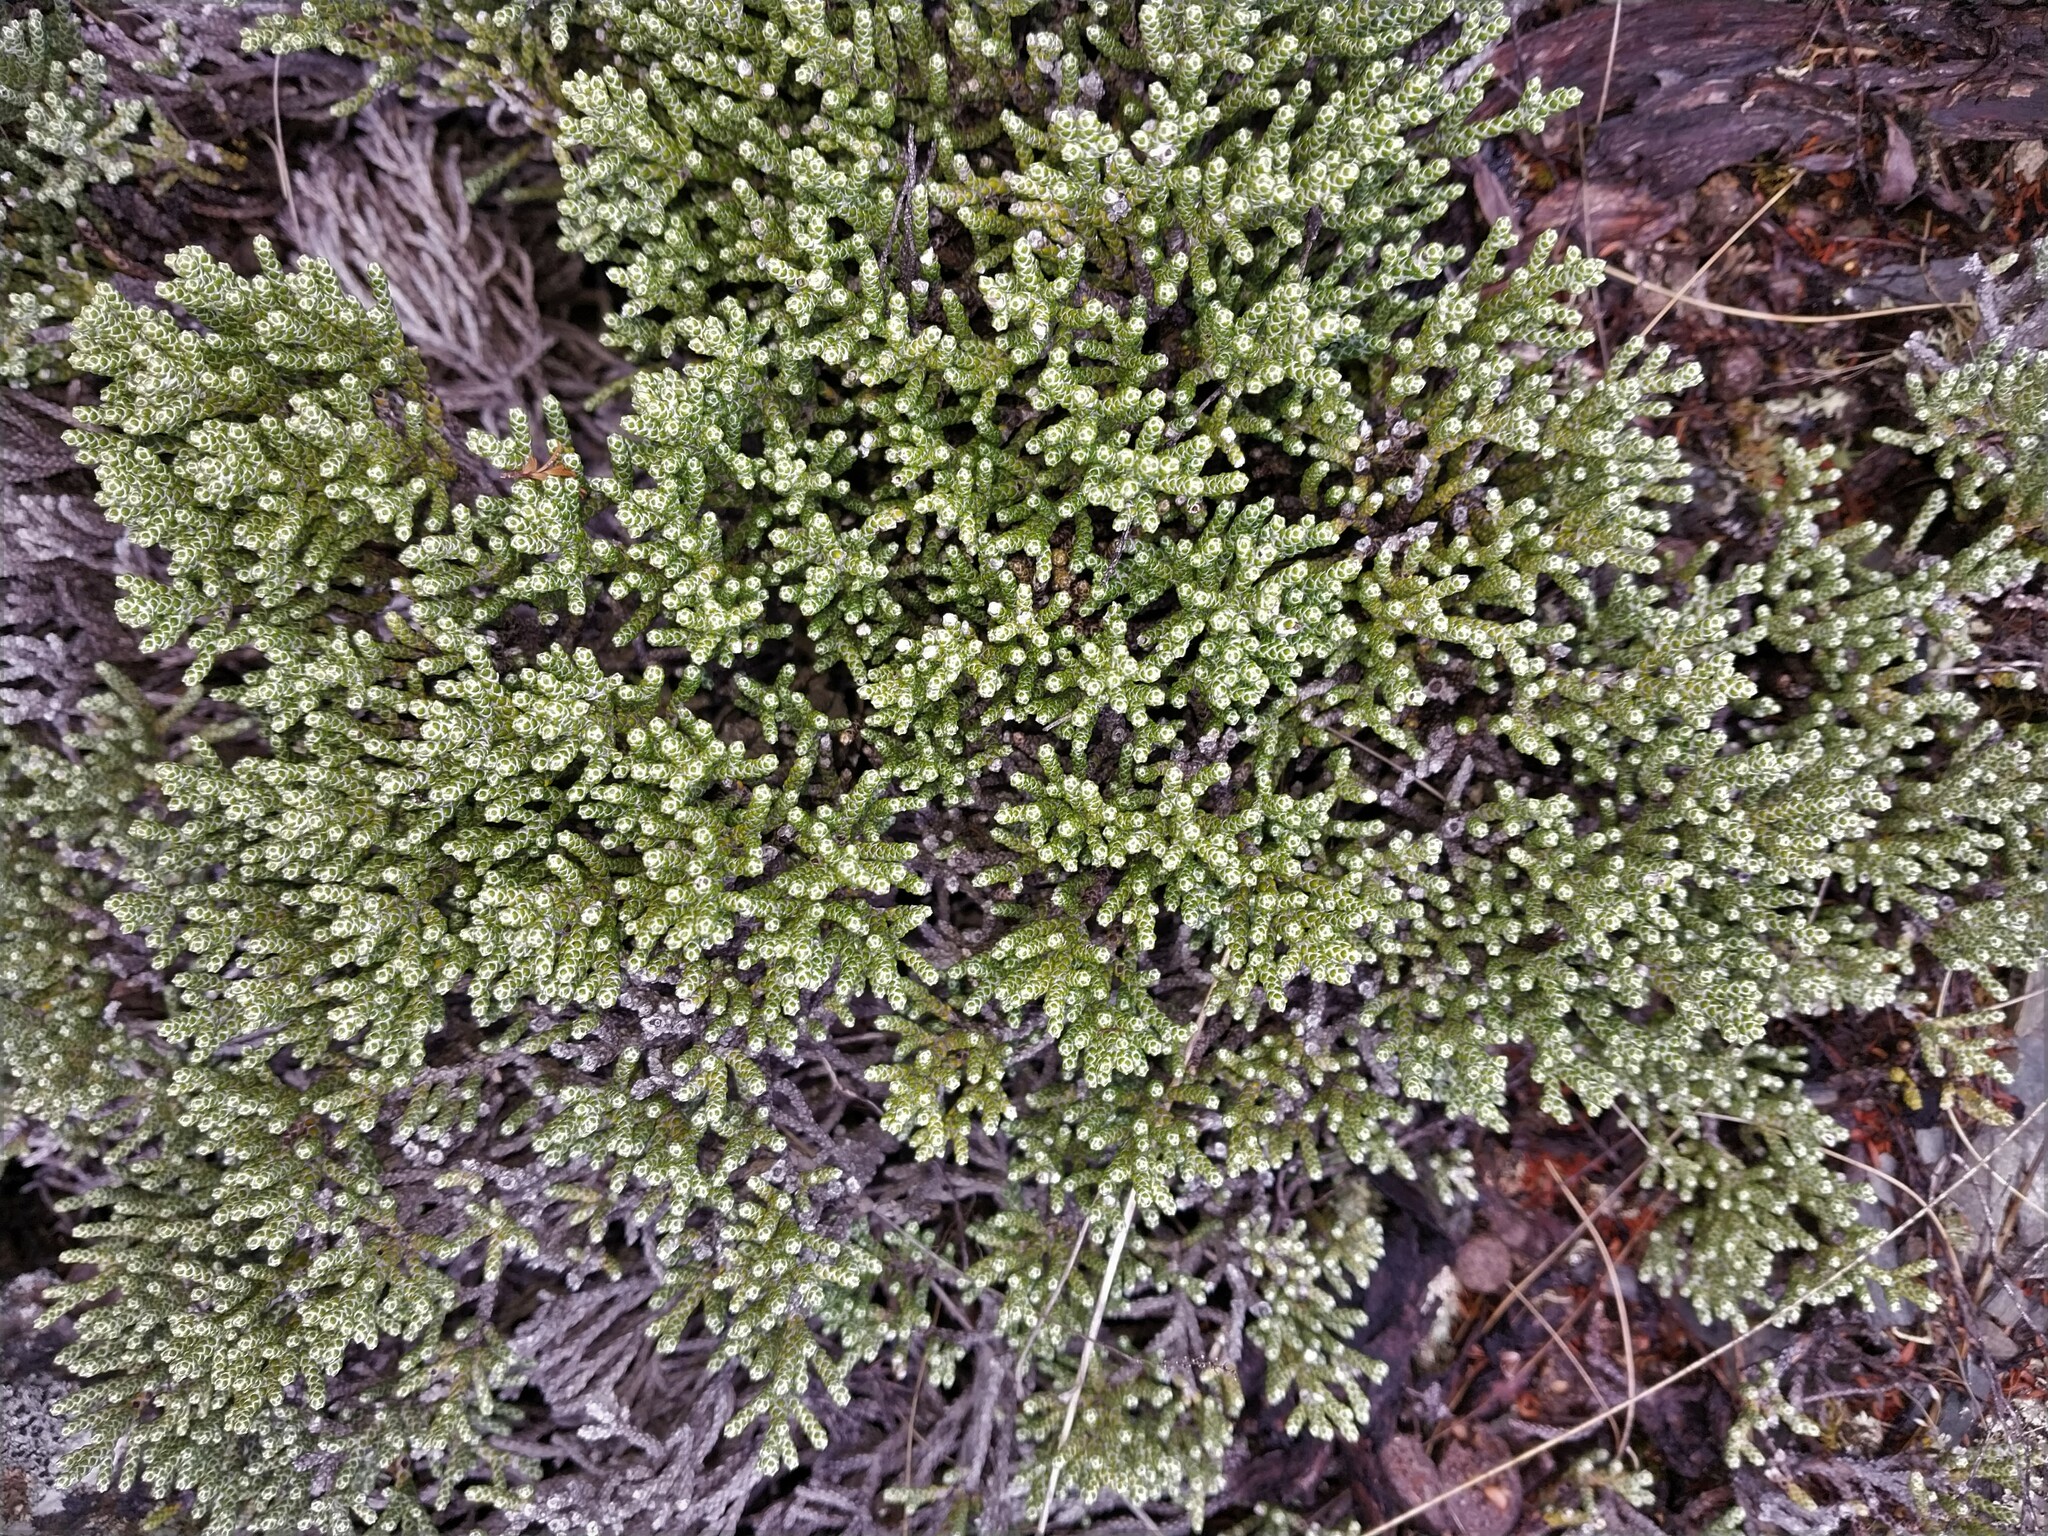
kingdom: Plantae
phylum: Tracheophyta
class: Magnoliopsida
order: Asterales
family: Asteraceae
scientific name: Asteraceae
